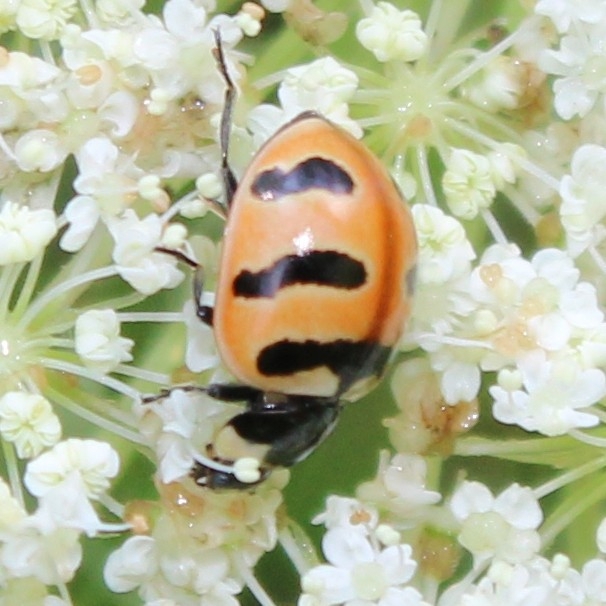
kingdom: Animalia
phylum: Arthropoda
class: Insecta
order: Coleoptera
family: Coccinellidae
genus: Coccinella
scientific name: Coccinella trifasciata
